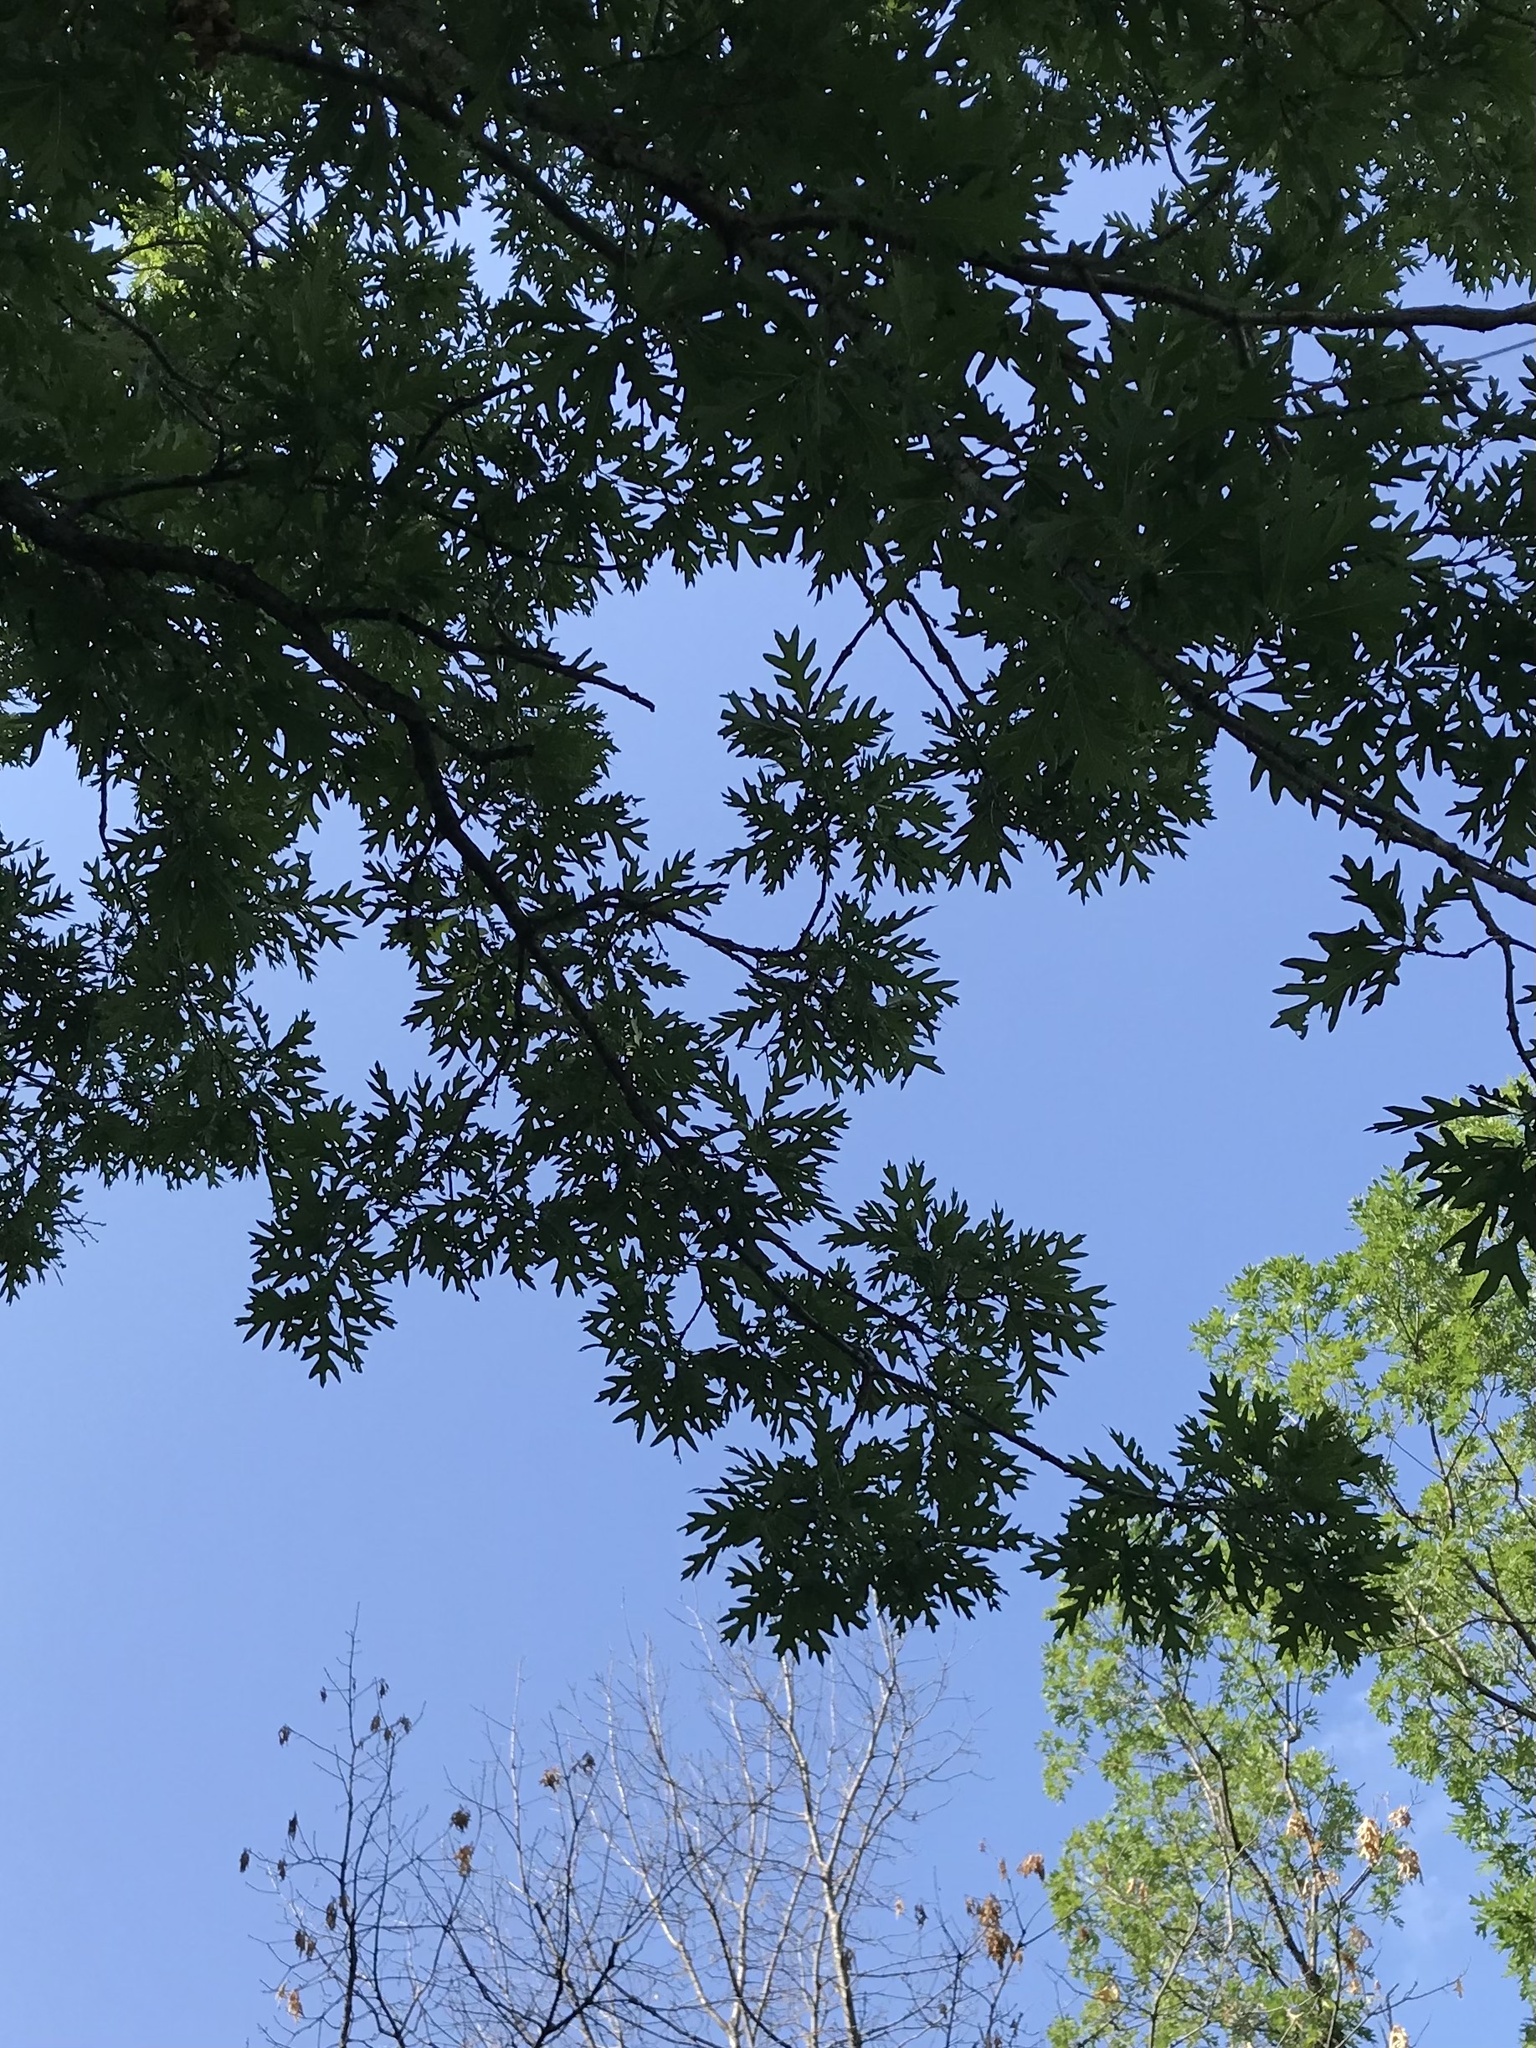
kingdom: Plantae
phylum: Tracheophyta
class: Magnoliopsida
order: Fagales
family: Fagaceae
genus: Quercus
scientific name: Quercus alba
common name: White oak
